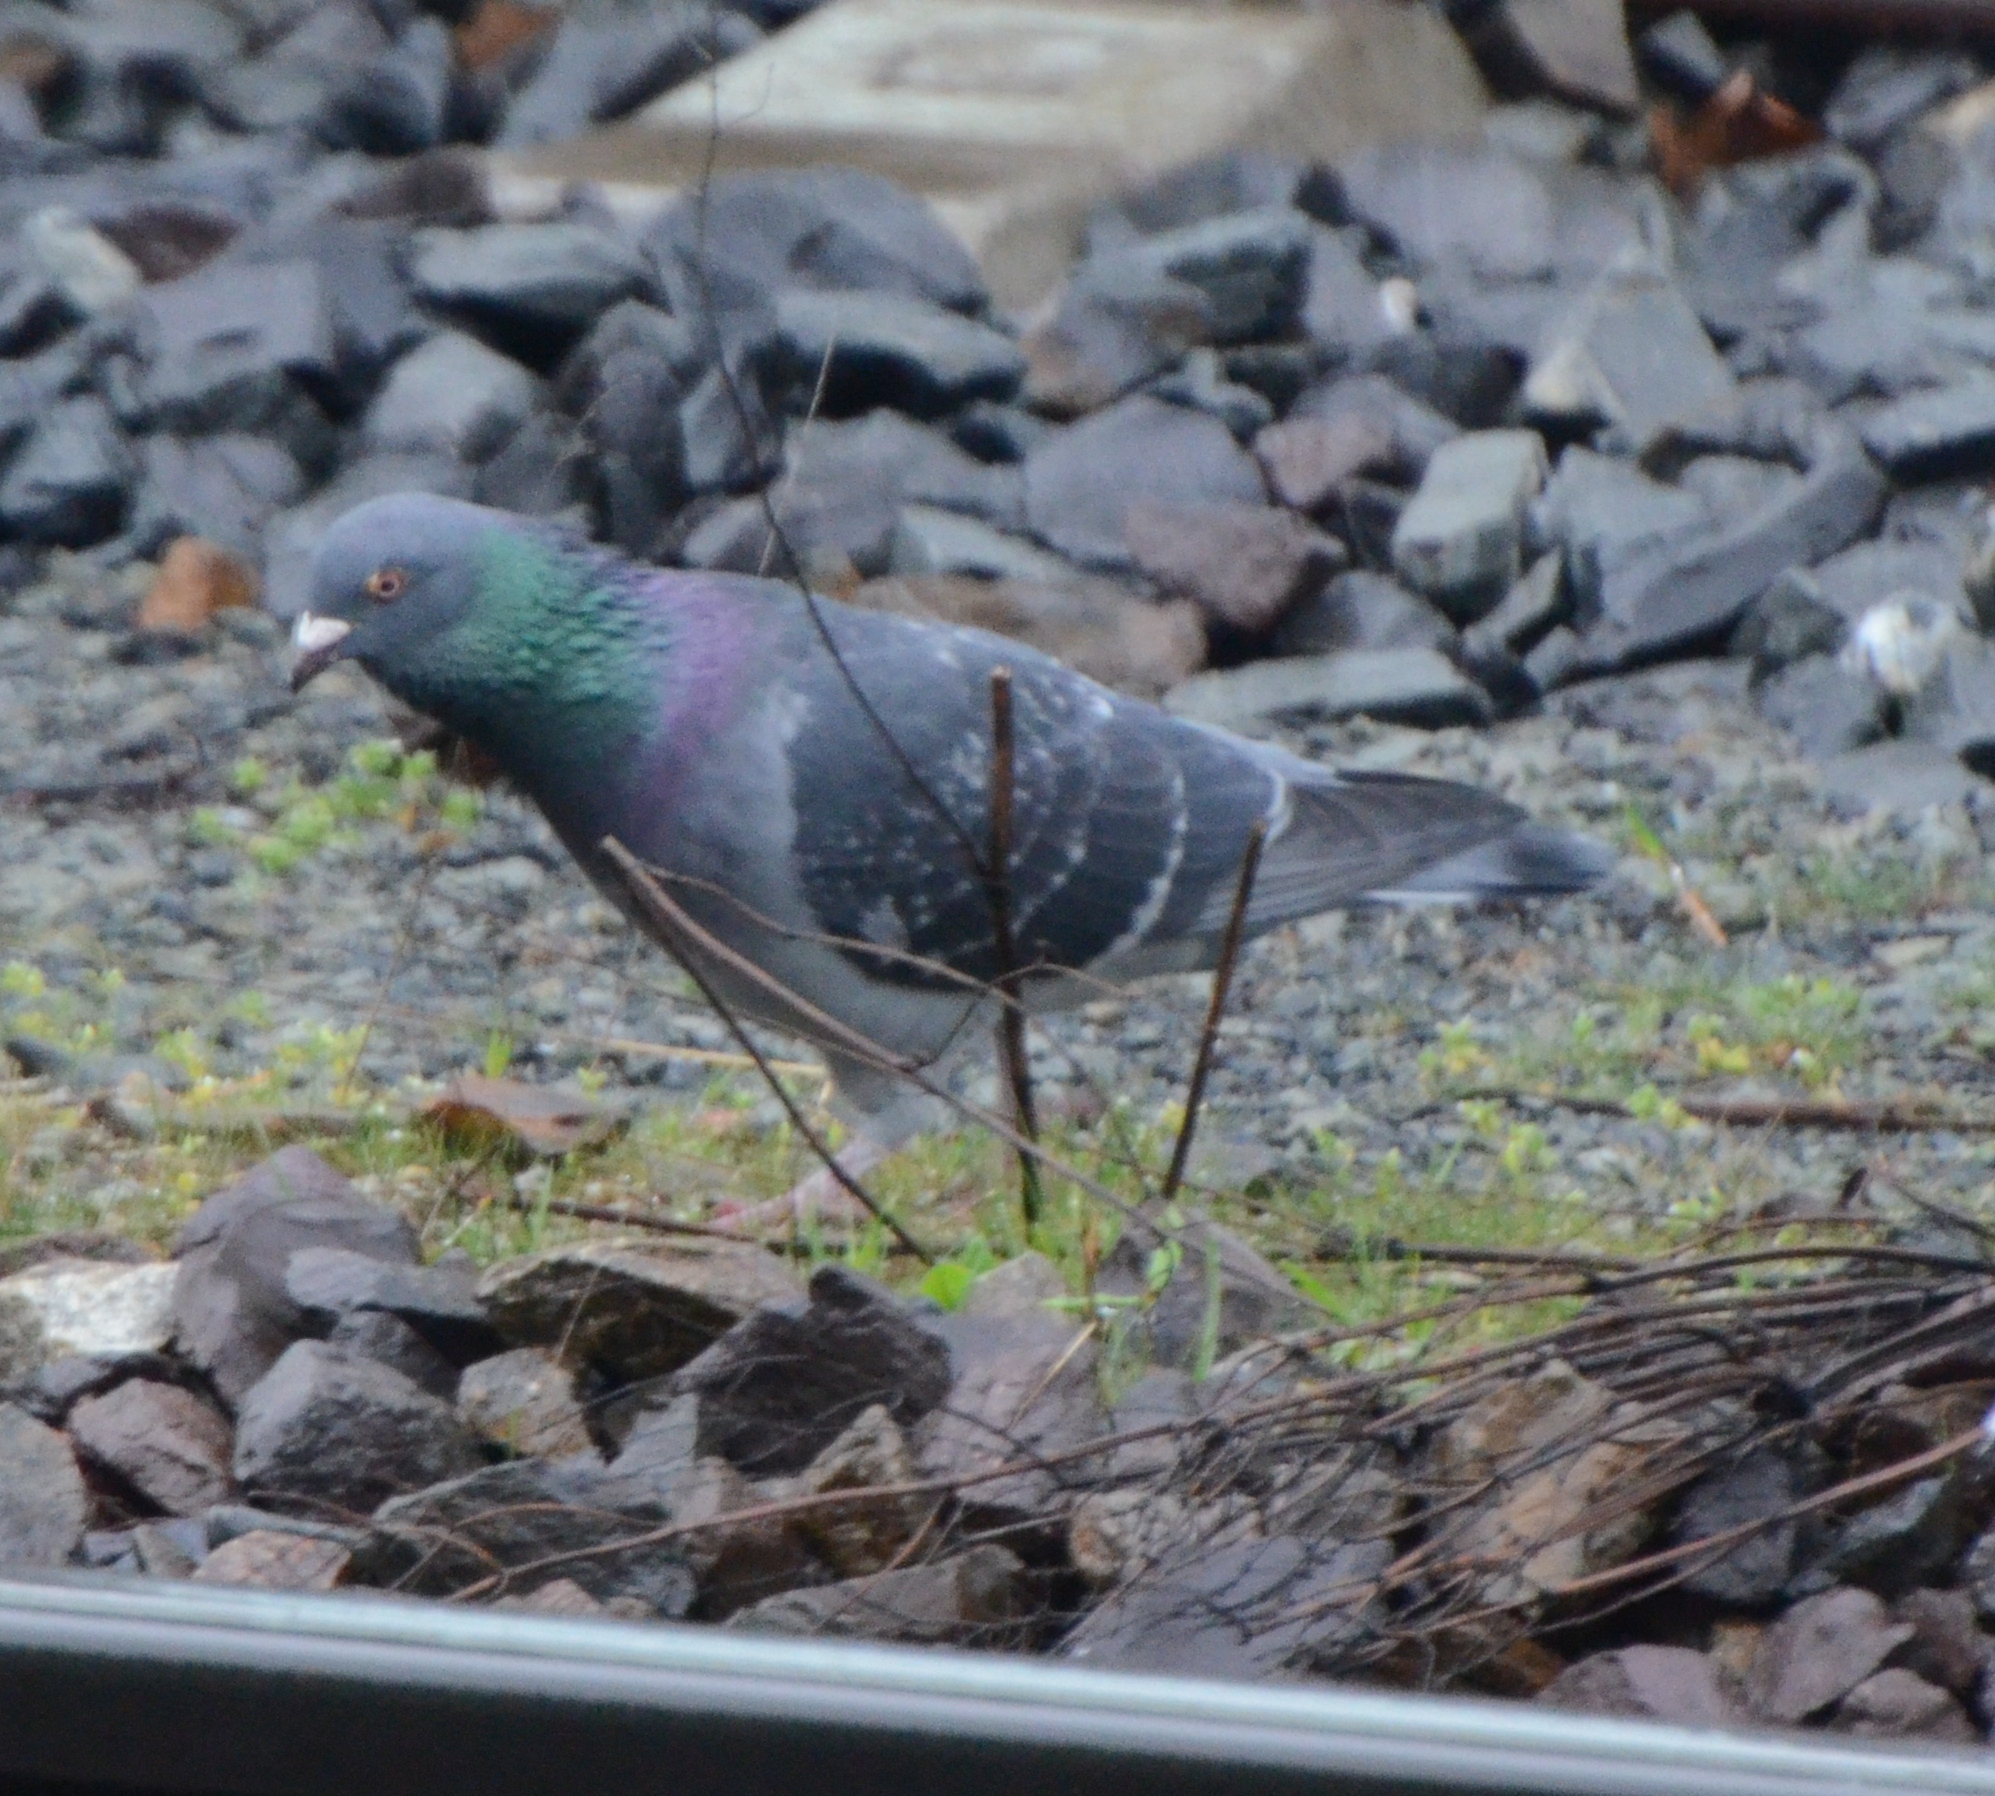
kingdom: Animalia
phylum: Chordata
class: Aves
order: Columbiformes
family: Columbidae
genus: Columba
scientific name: Columba livia
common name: Rock pigeon
